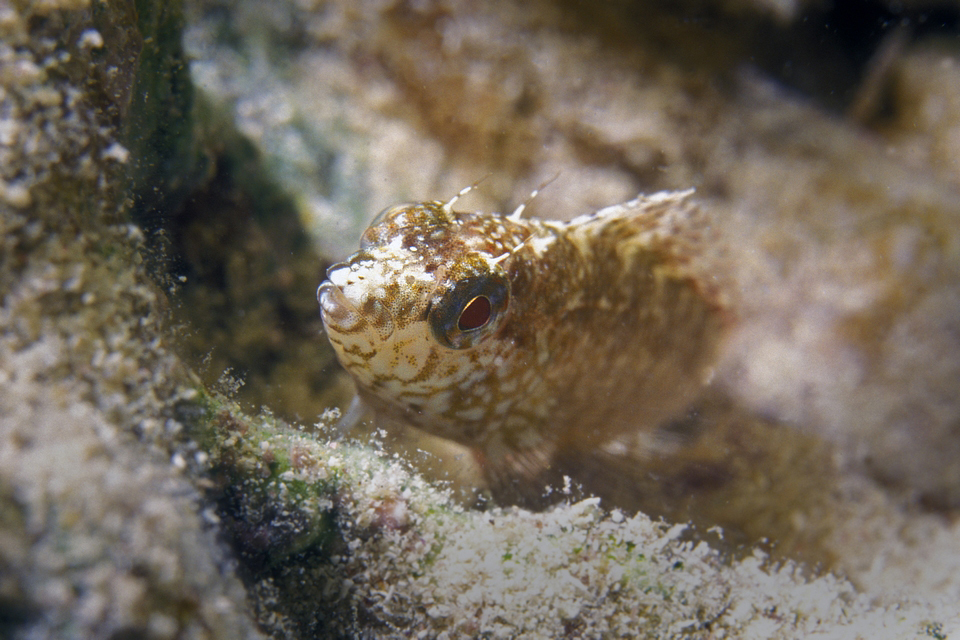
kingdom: Animalia
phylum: Chordata
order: Perciformes
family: Labrisomidae
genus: Malacoctenus
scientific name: Malacoctenus macropus
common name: Rosy blenny
